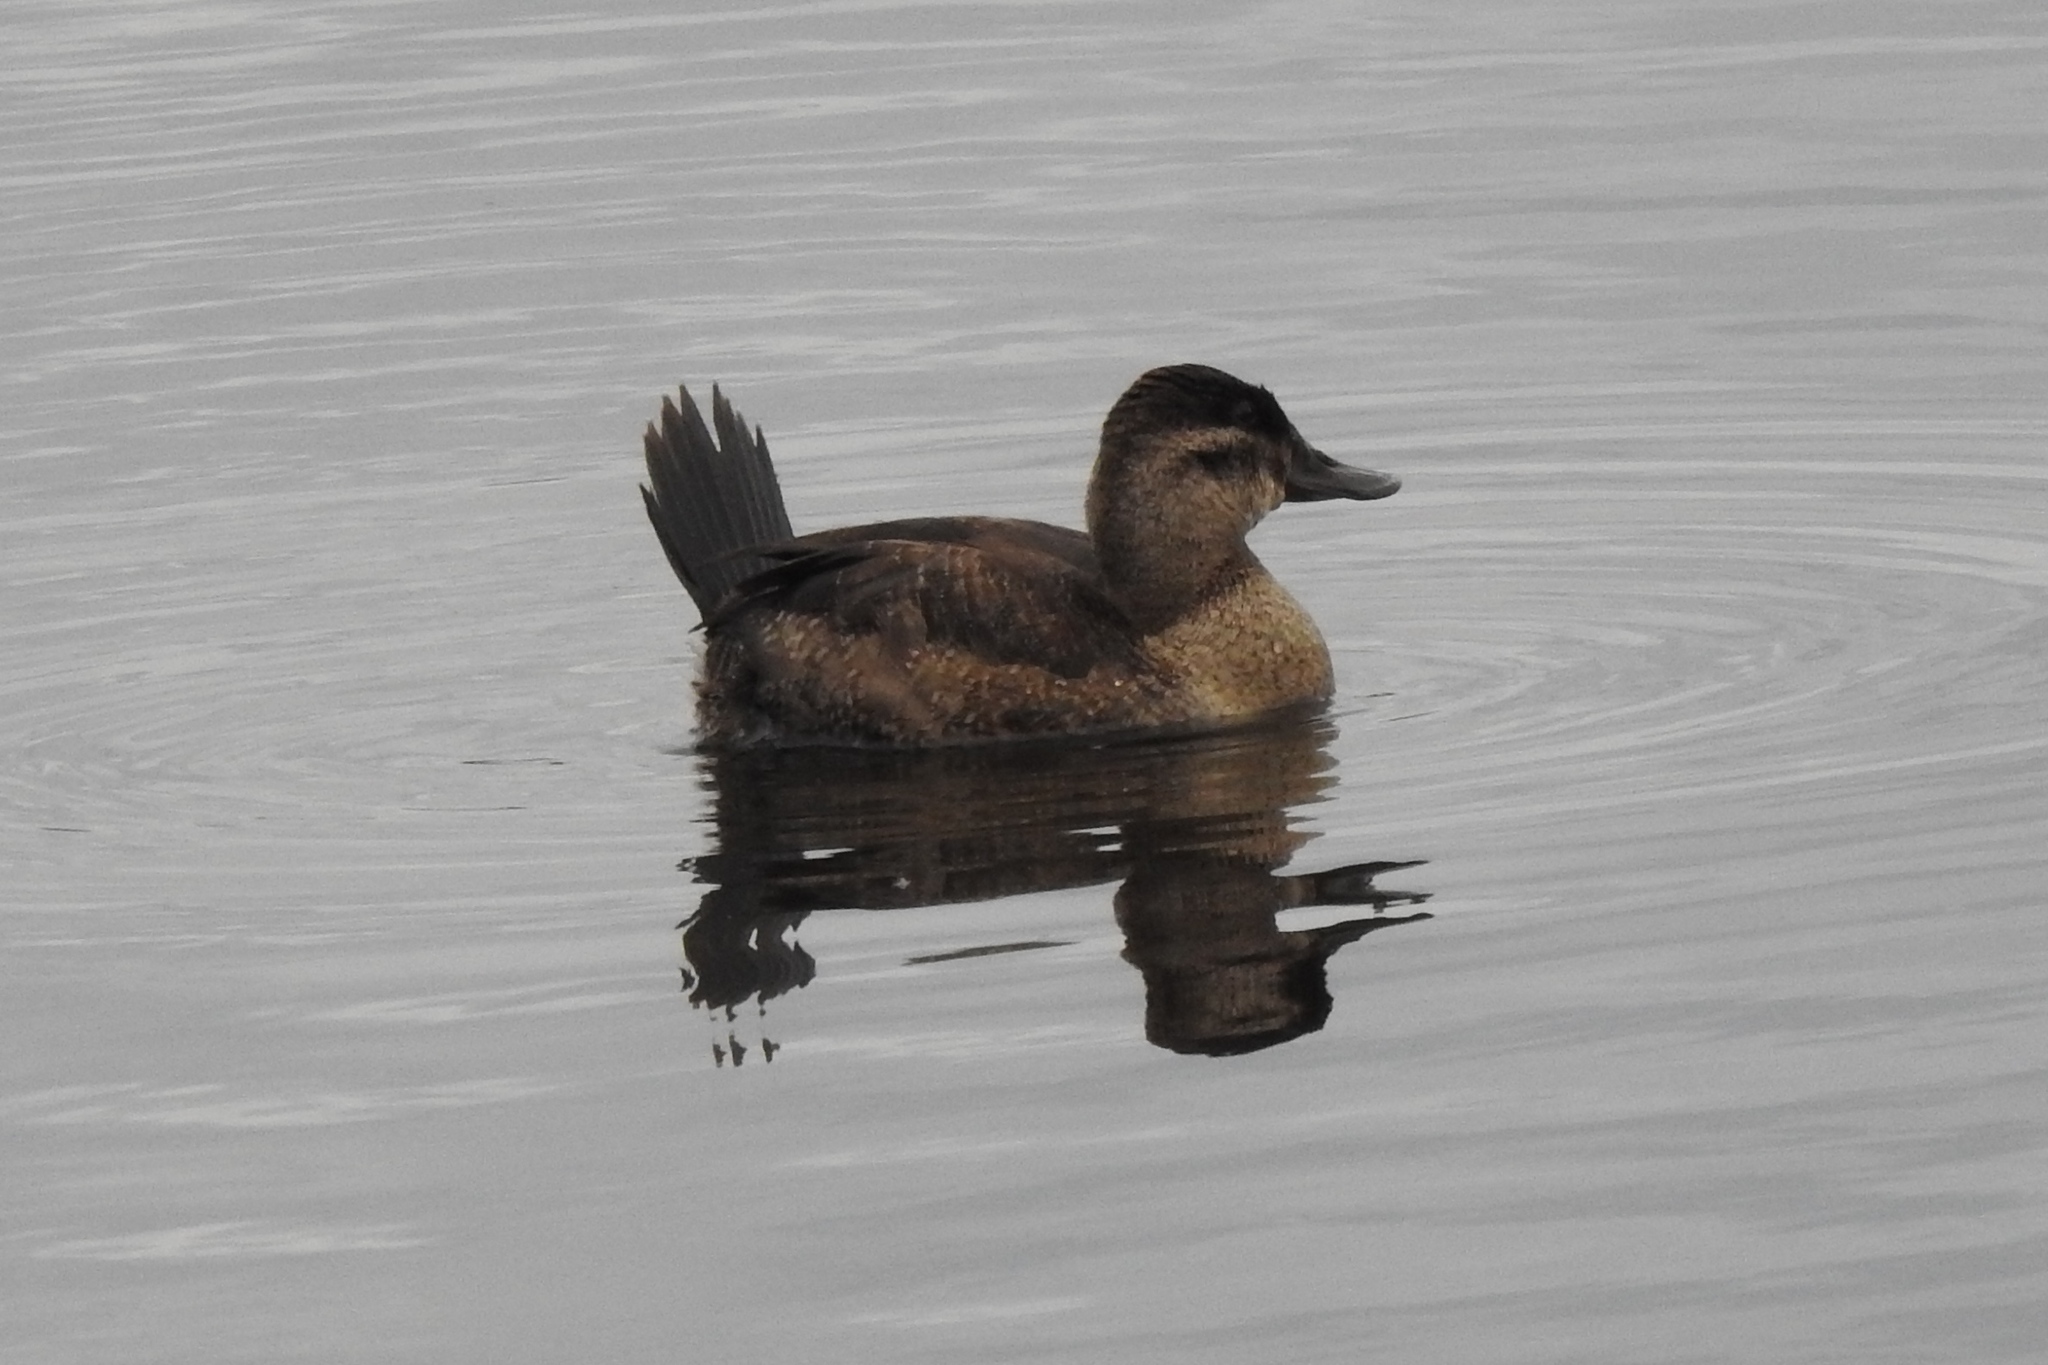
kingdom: Animalia
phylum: Chordata
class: Aves
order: Anseriformes
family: Anatidae
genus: Oxyura
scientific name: Oxyura jamaicensis
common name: Ruddy duck
